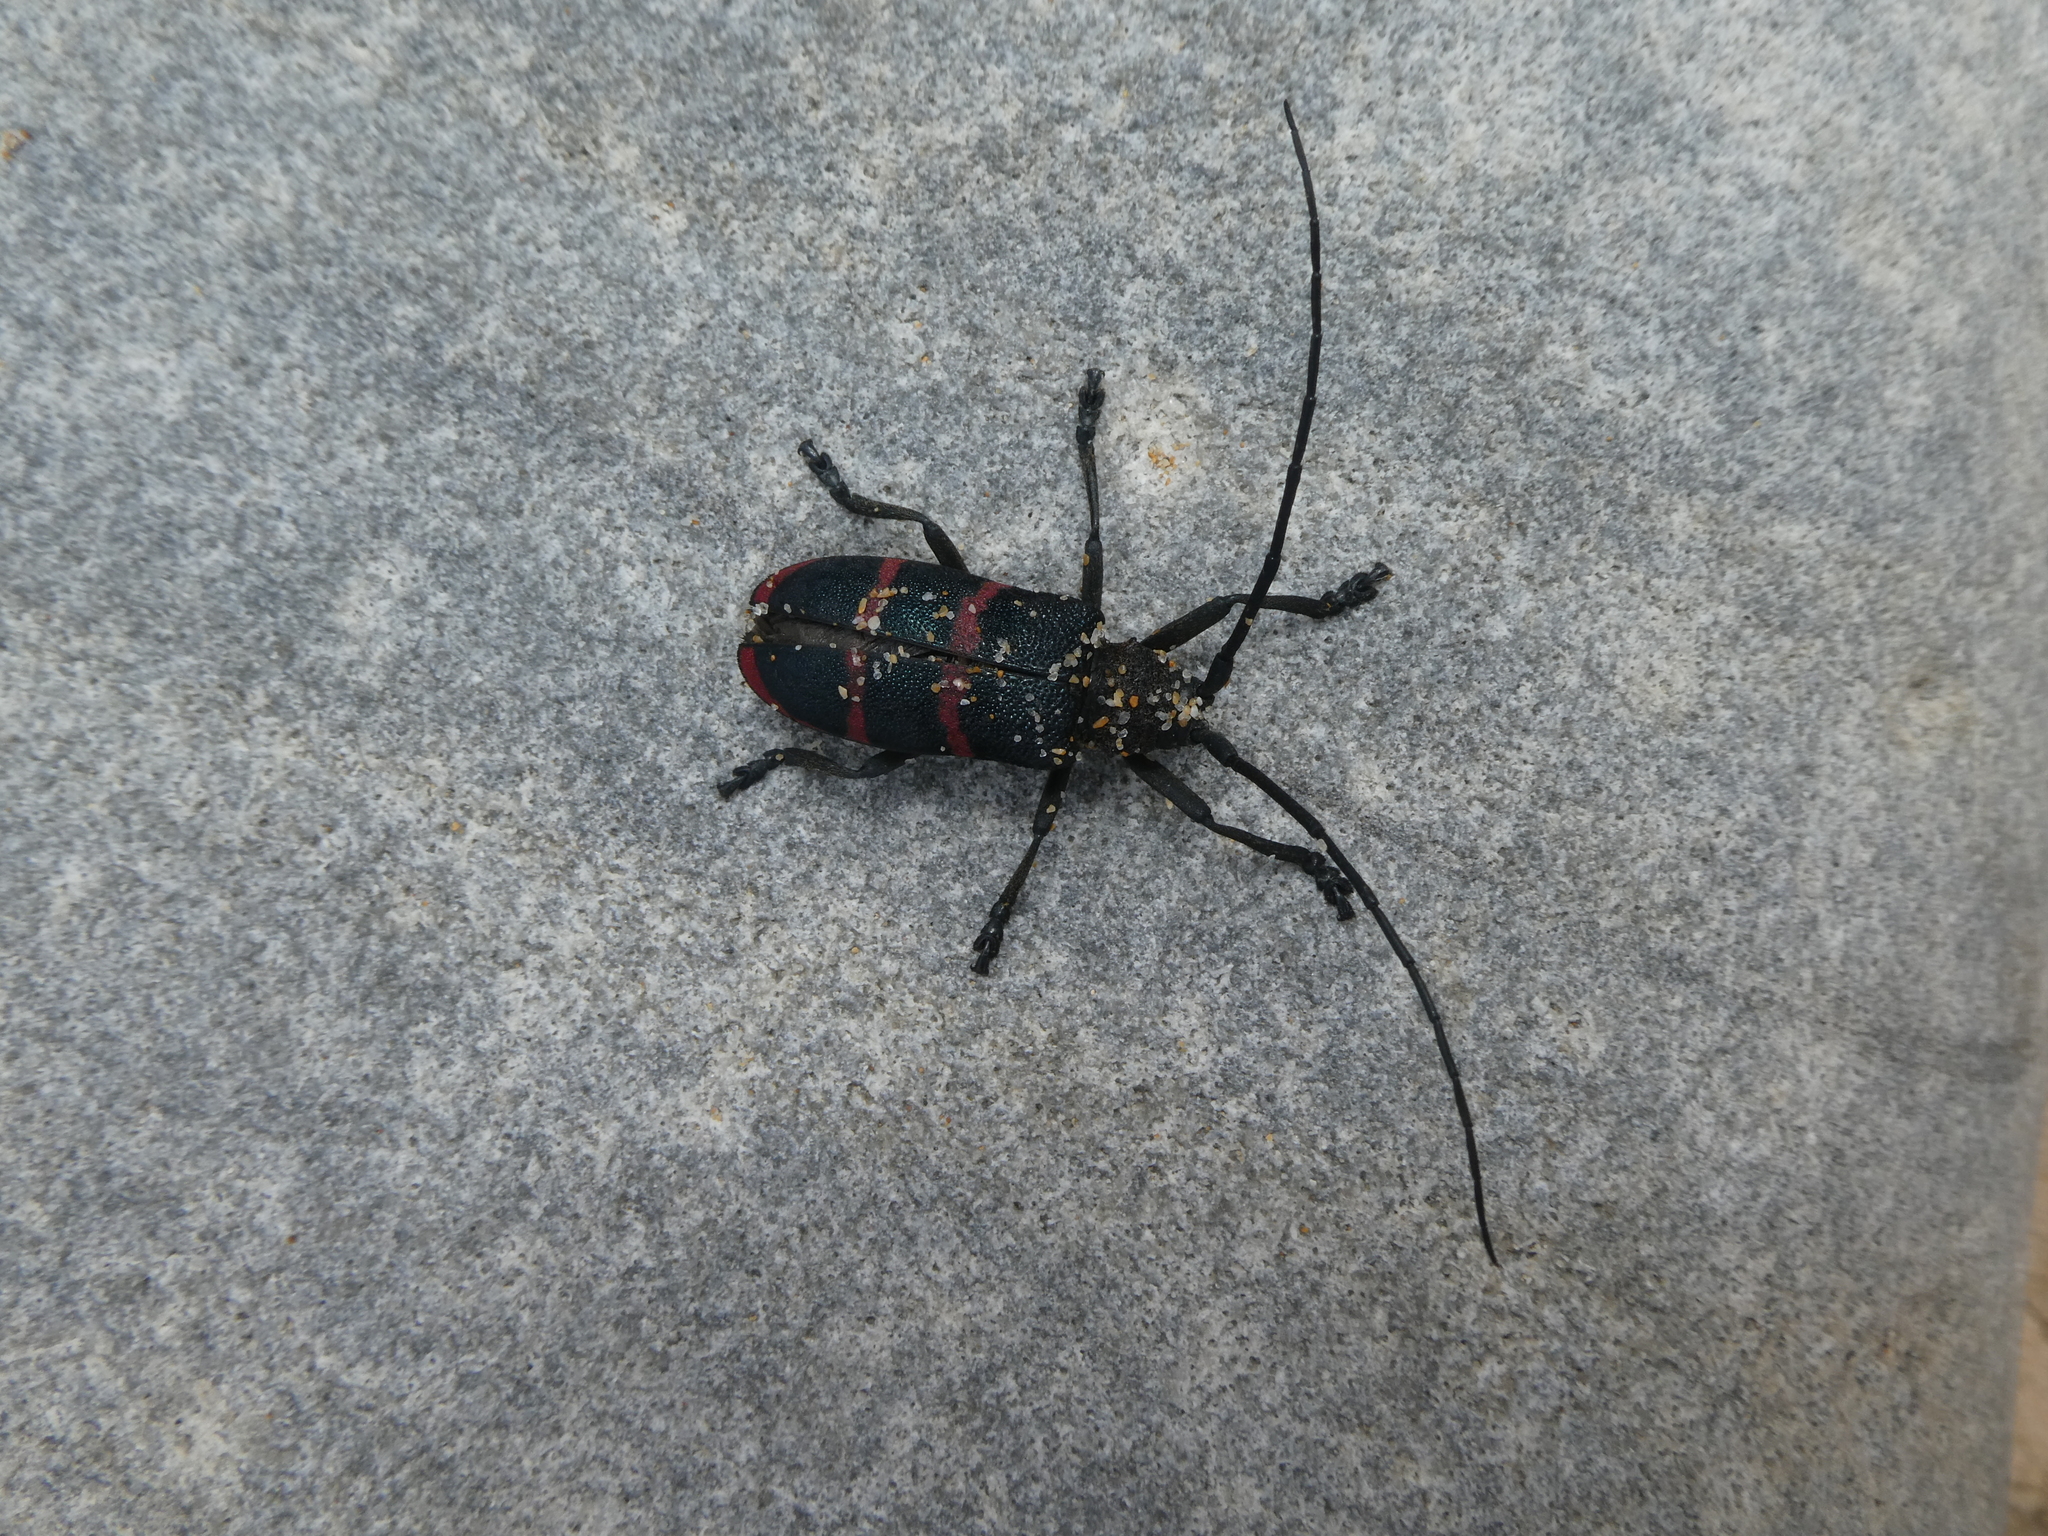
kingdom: Animalia
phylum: Arthropoda
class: Insecta
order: Coleoptera
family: Cerambycidae
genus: Ceroplesis
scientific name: Ceroplesis sumptuosa
